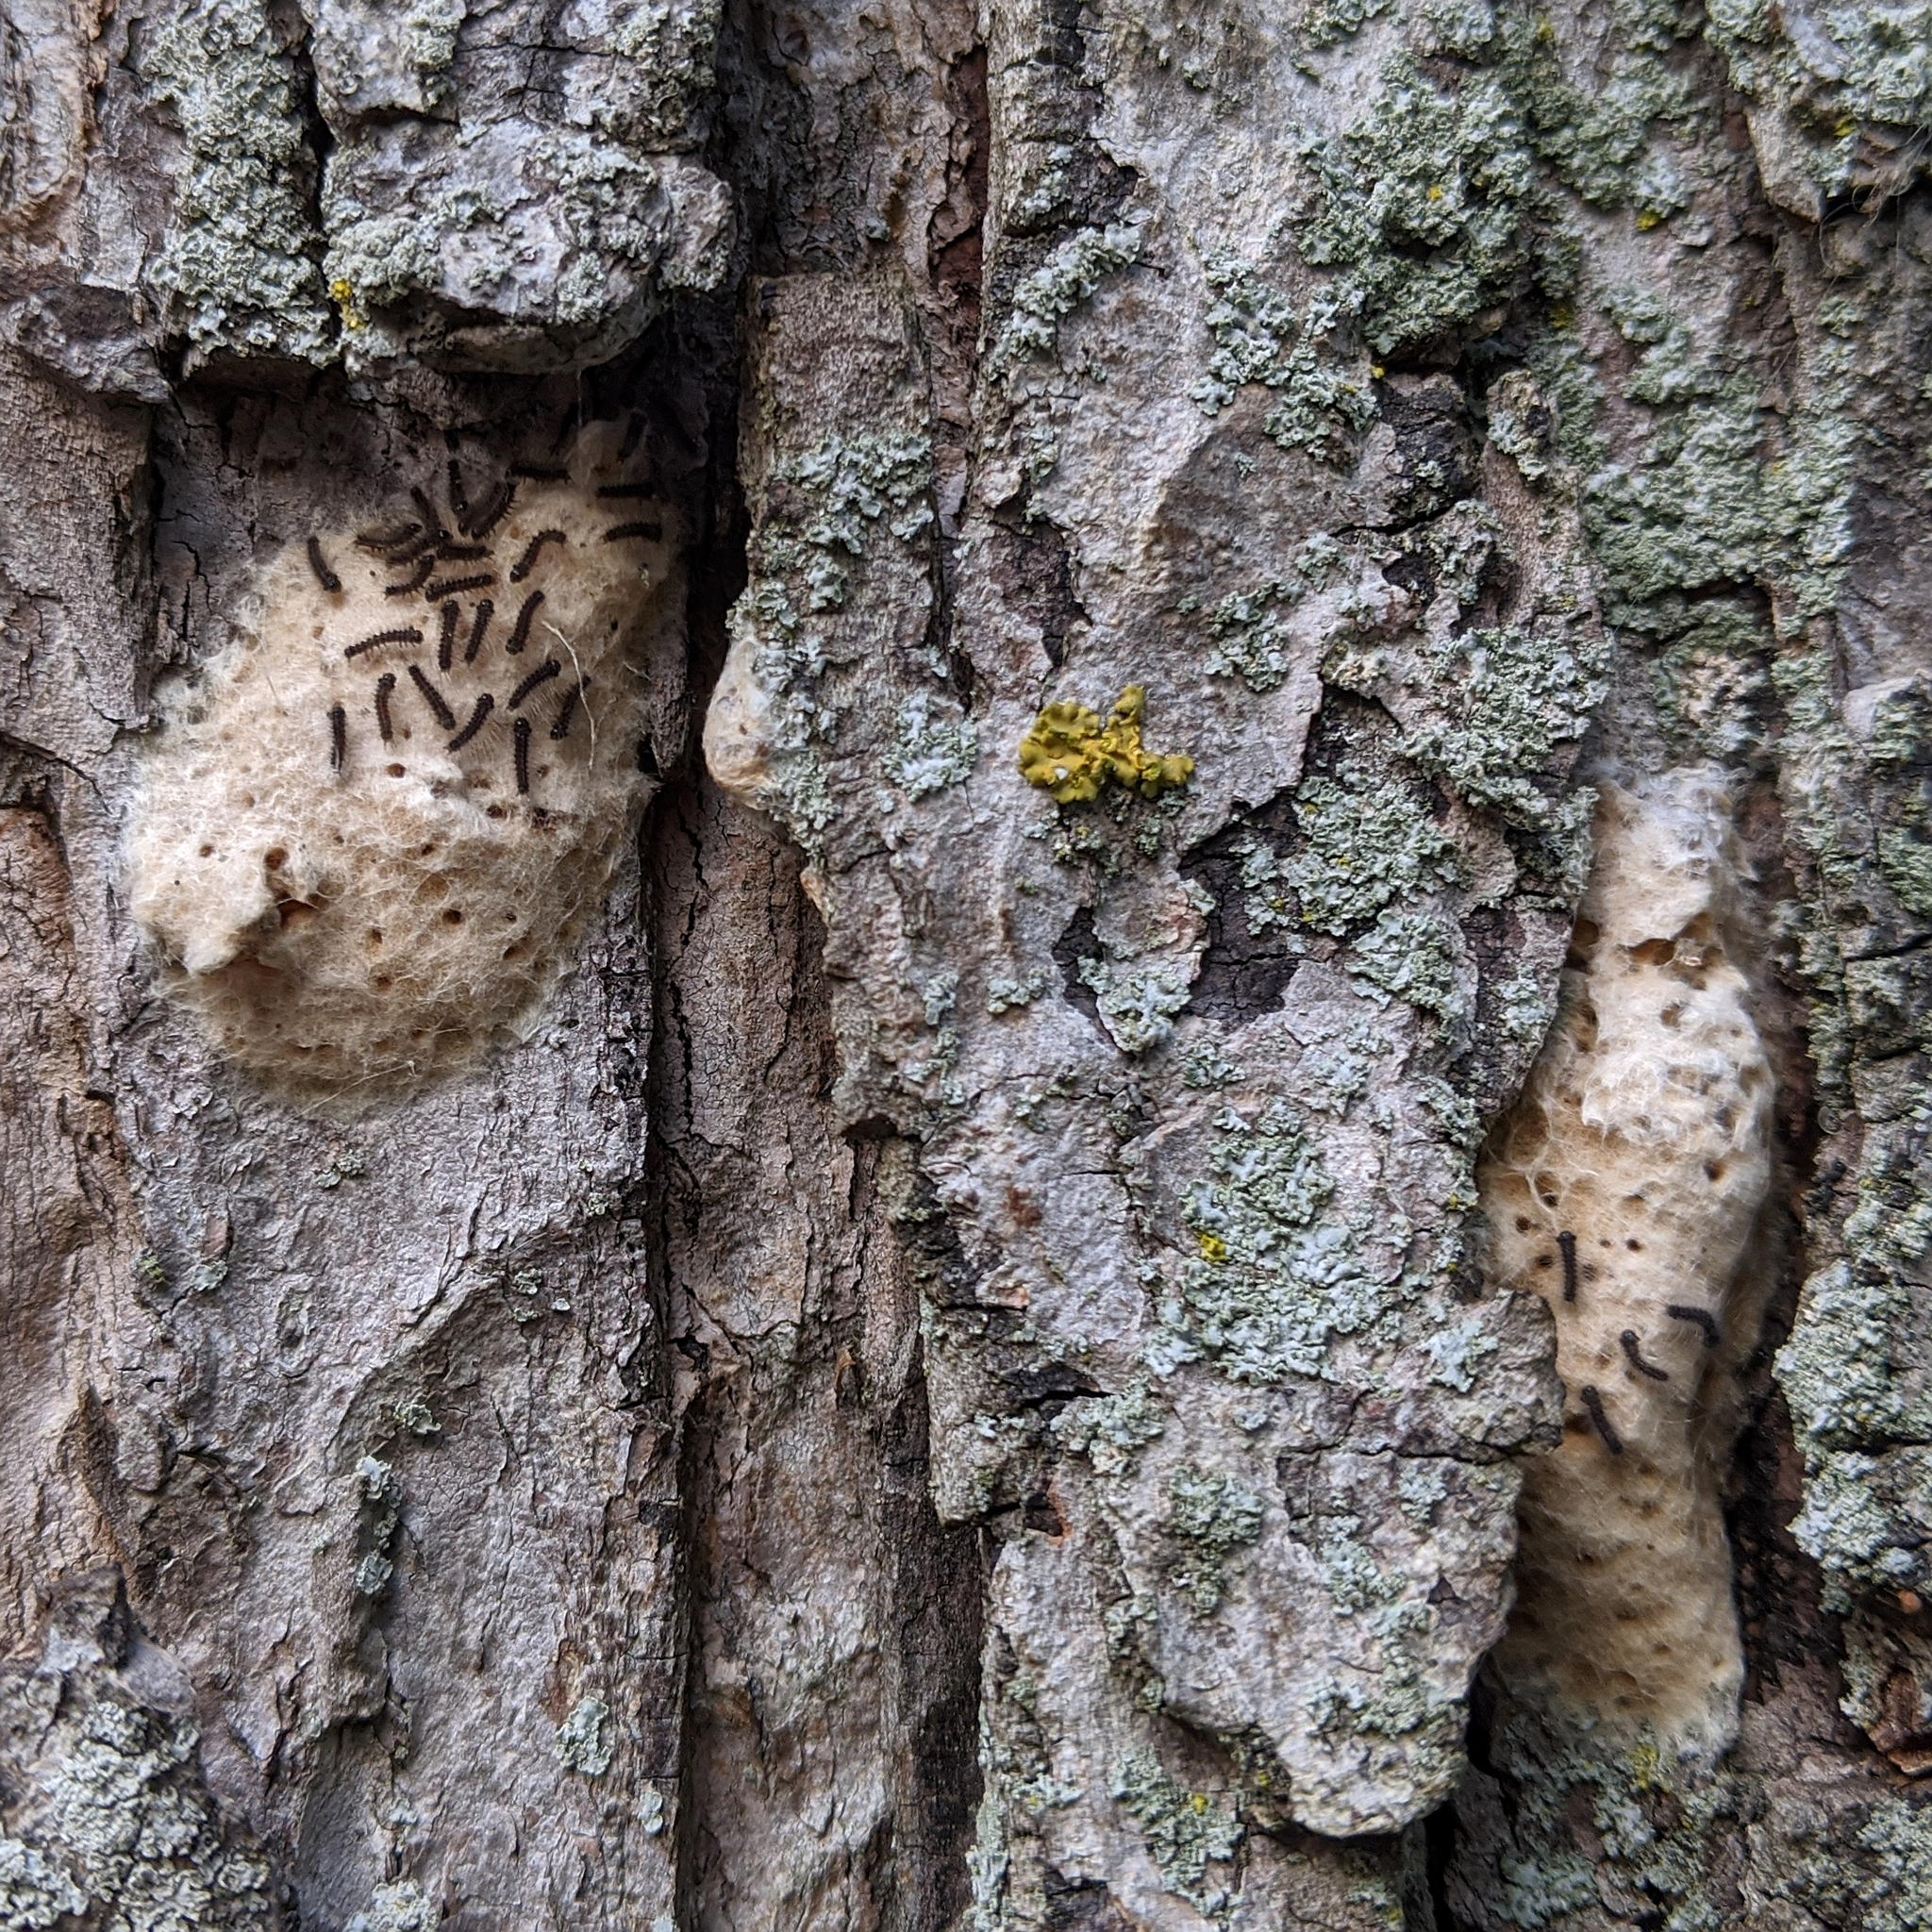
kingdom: Animalia
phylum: Arthropoda
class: Insecta
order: Lepidoptera
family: Erebidae
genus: Lymantria
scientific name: Lymantria dispar
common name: Gypsy moth
